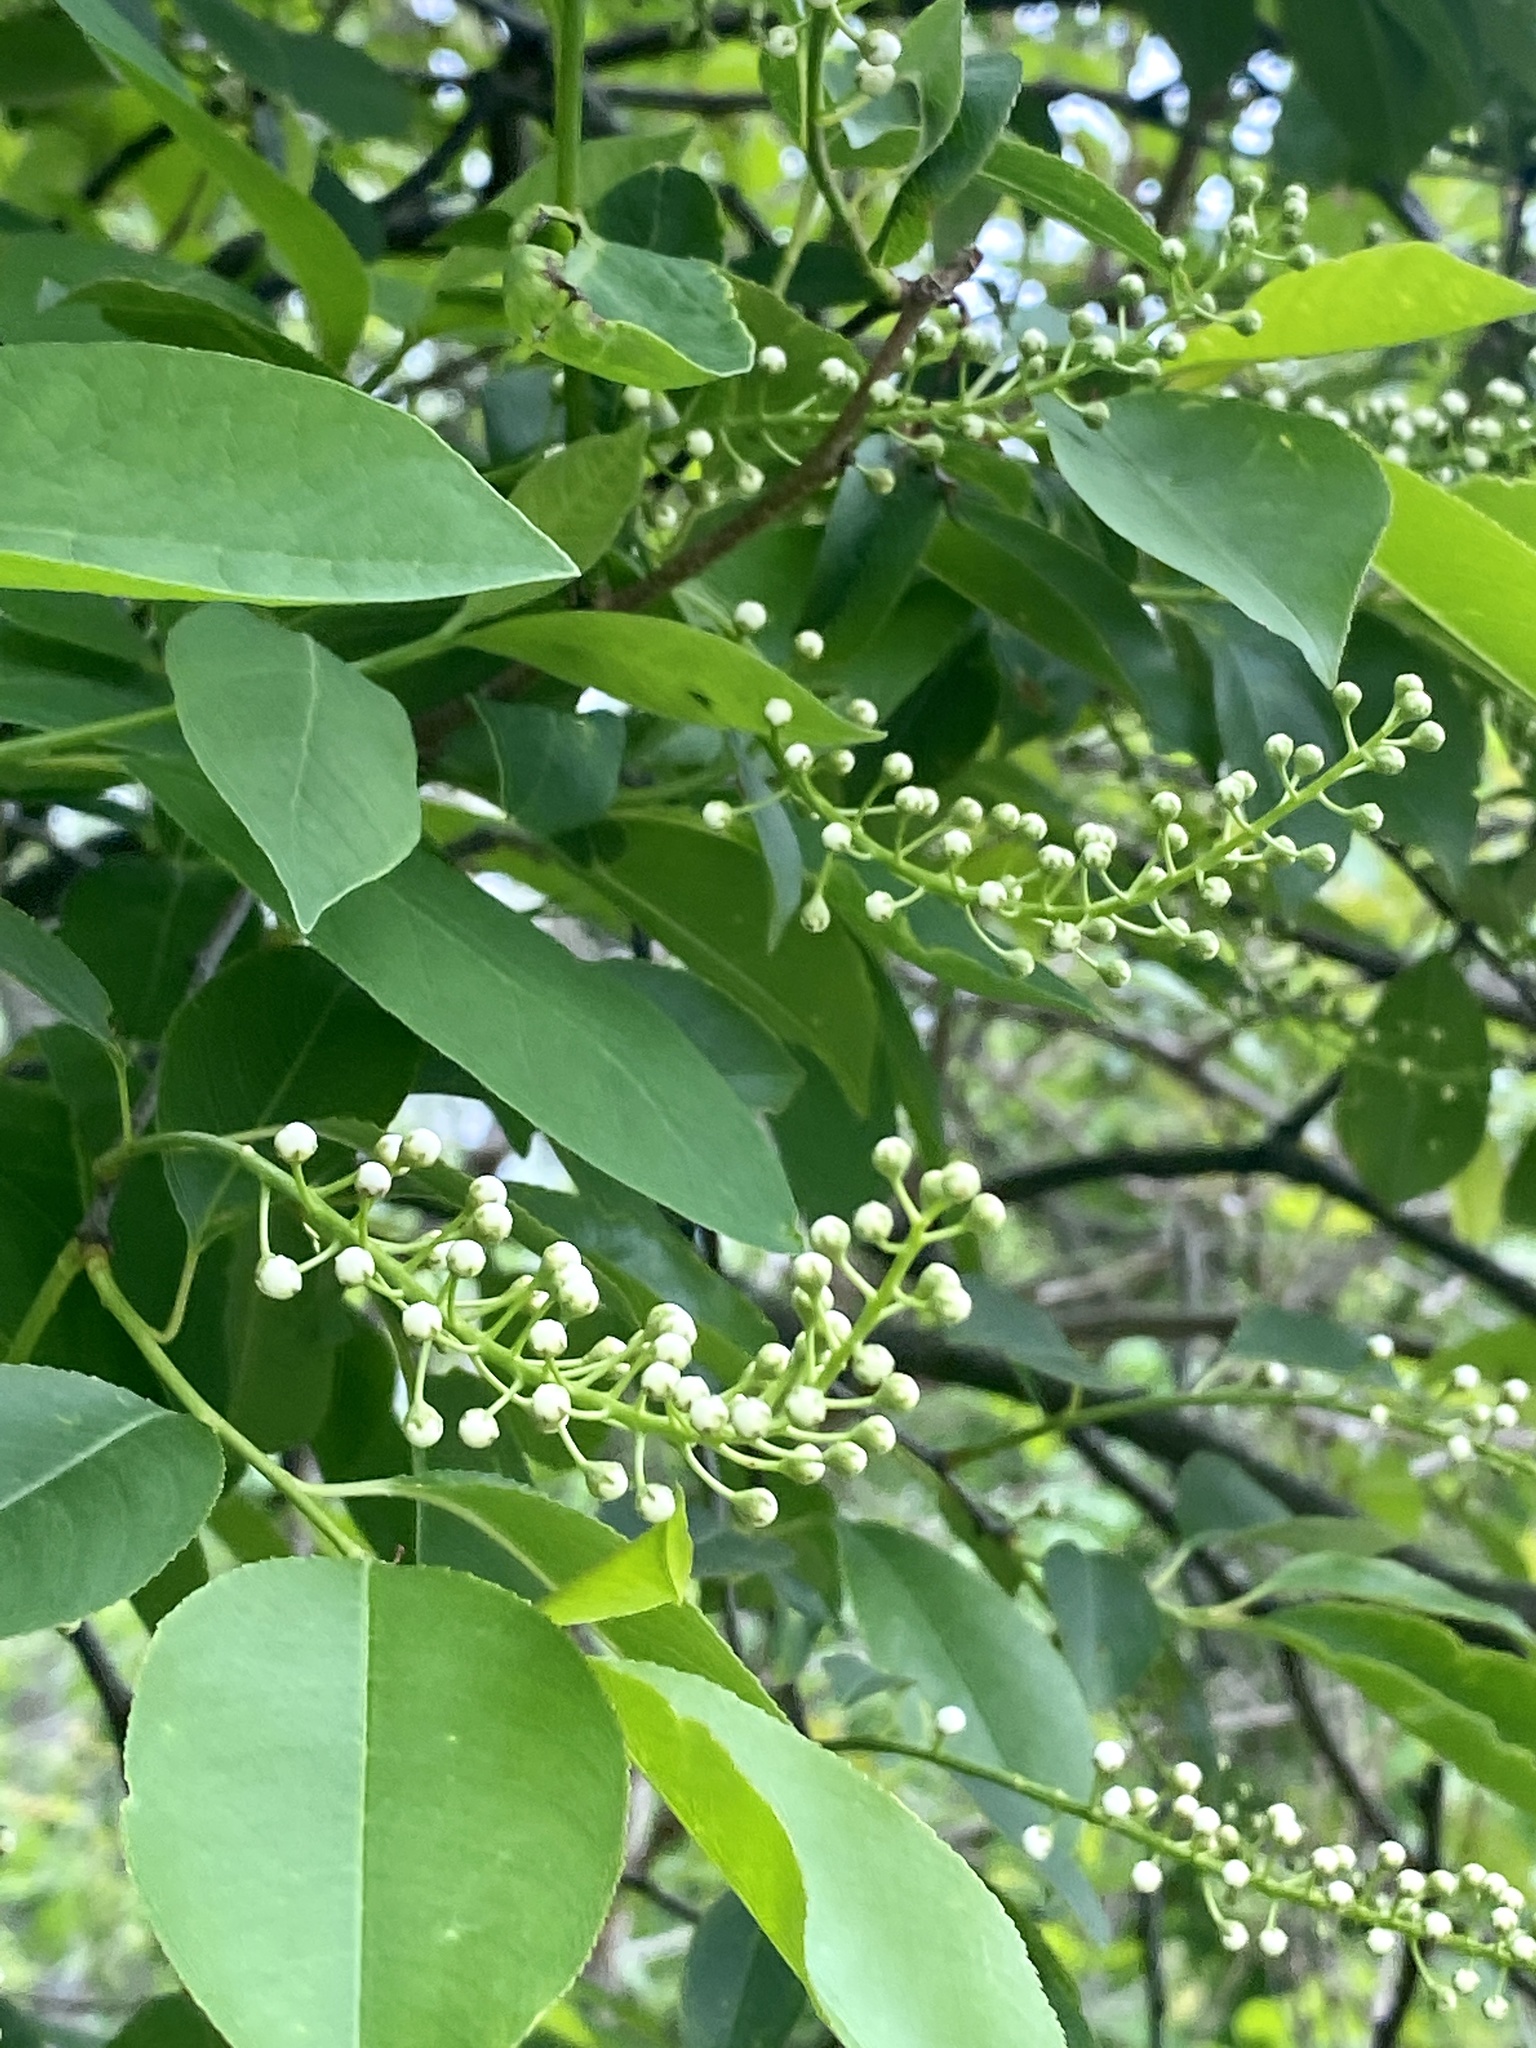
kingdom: Plantae
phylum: Tracheophyta
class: Magnoliopsida
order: Rosales
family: Rosaceae
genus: Prunus
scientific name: Prunus serotina
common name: Black cherry
